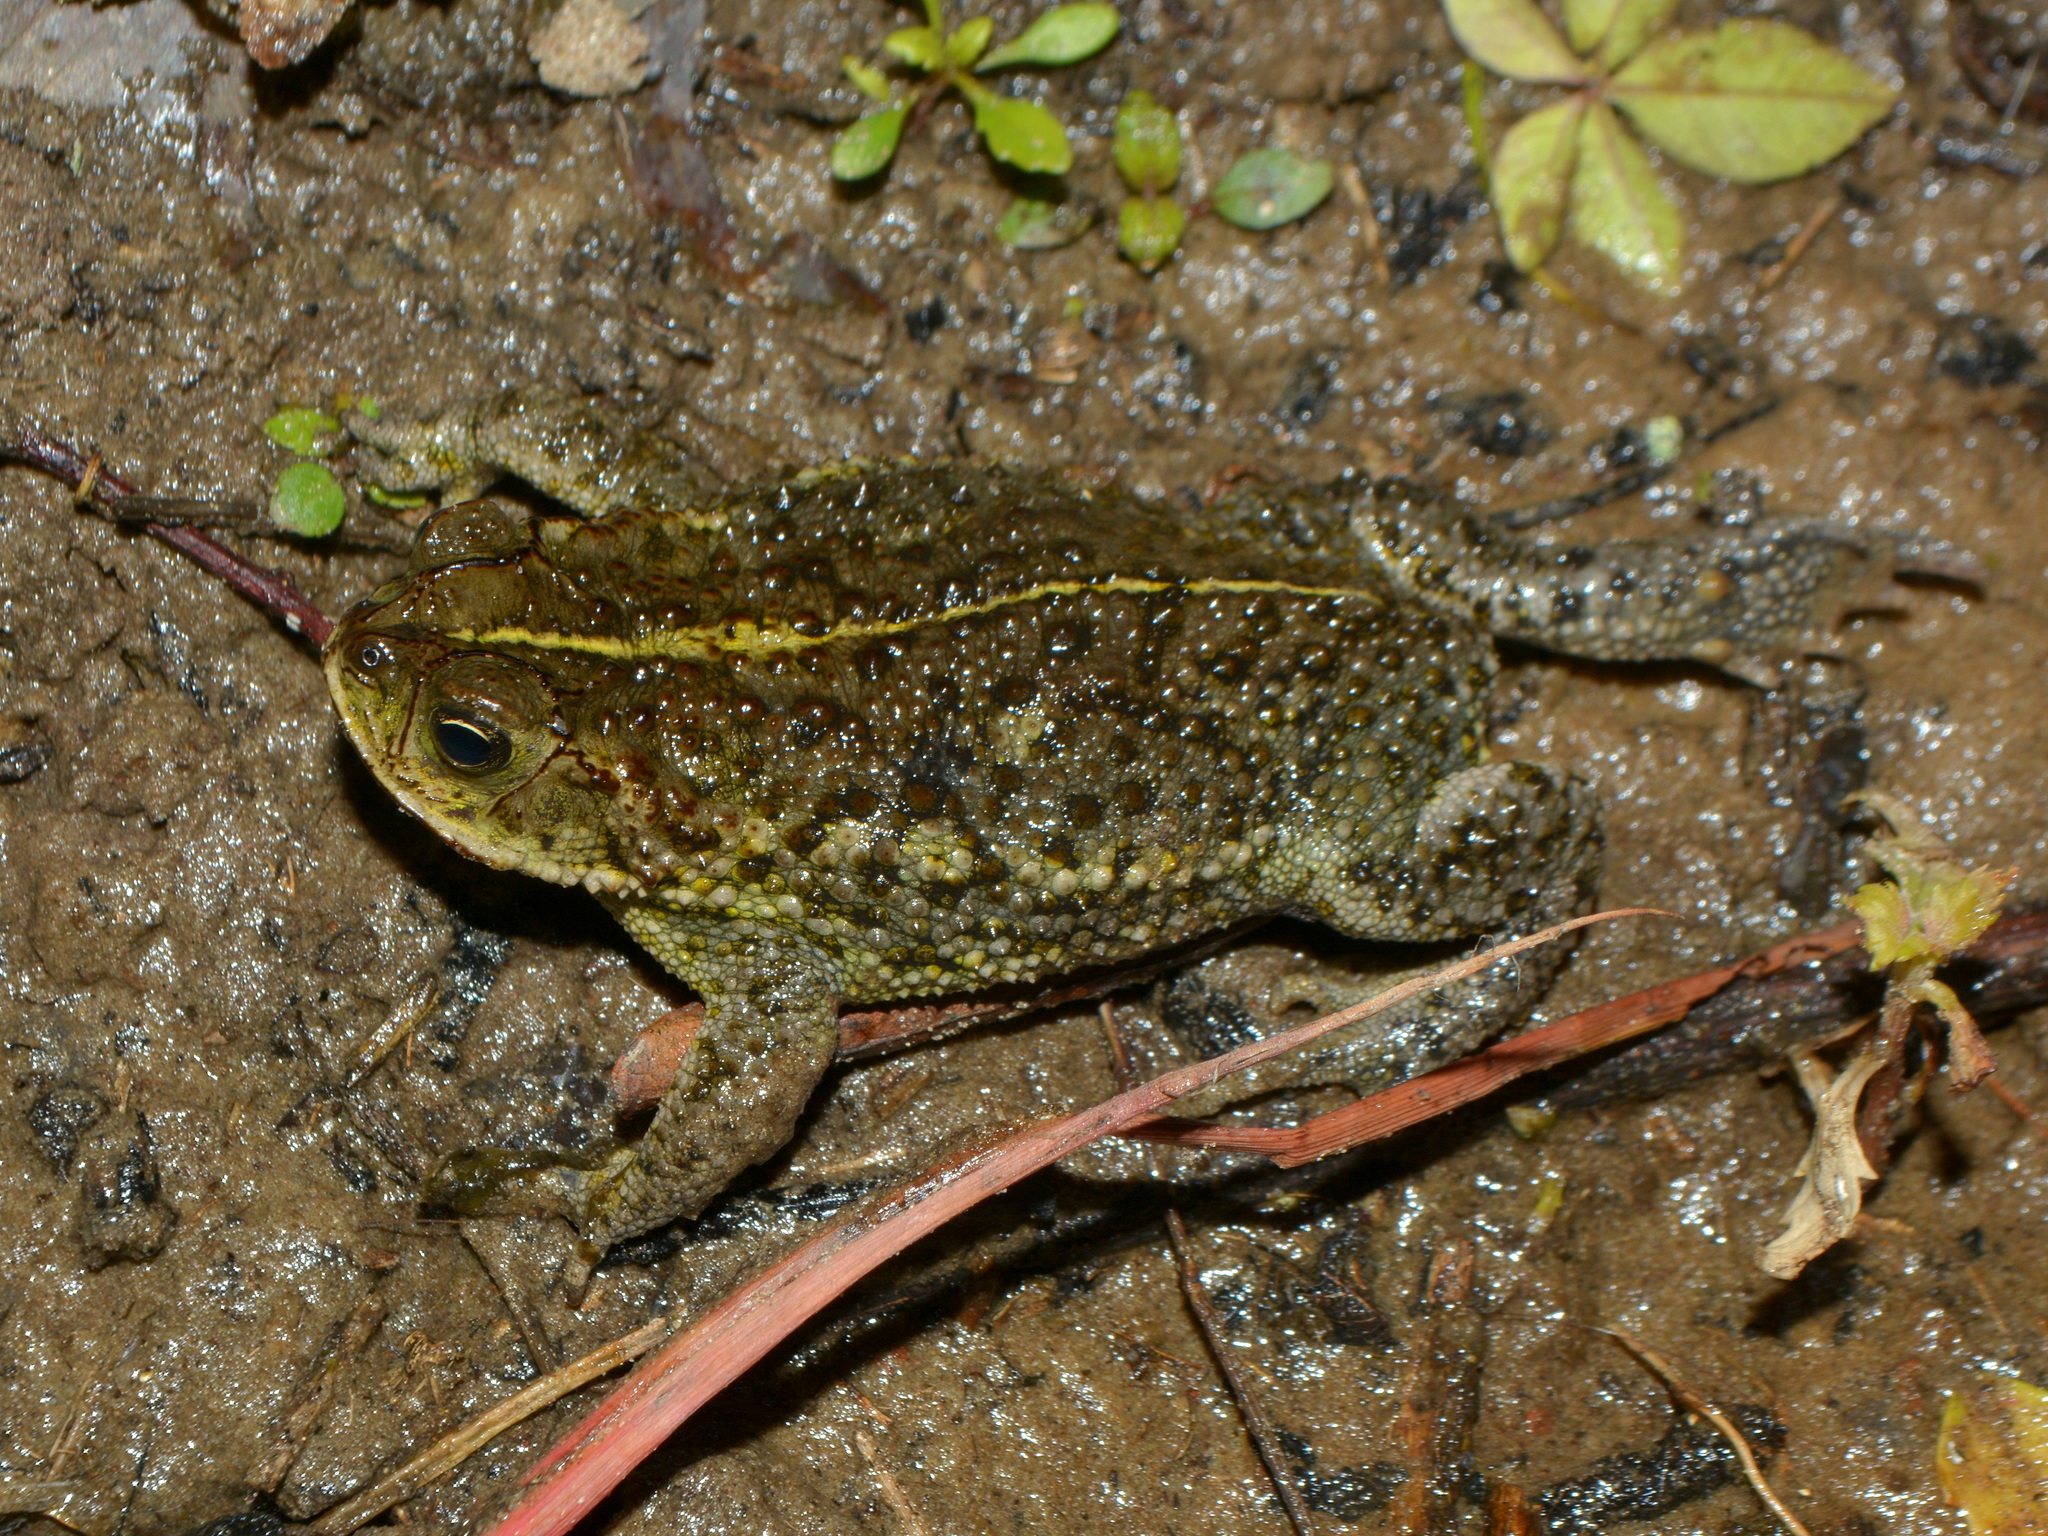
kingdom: Animalia
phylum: Chordata
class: Amphibia
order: Anura
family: Bufonidae
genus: Rhinella
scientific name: Rhinella dorbignyi
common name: D´orbigny’s toad
